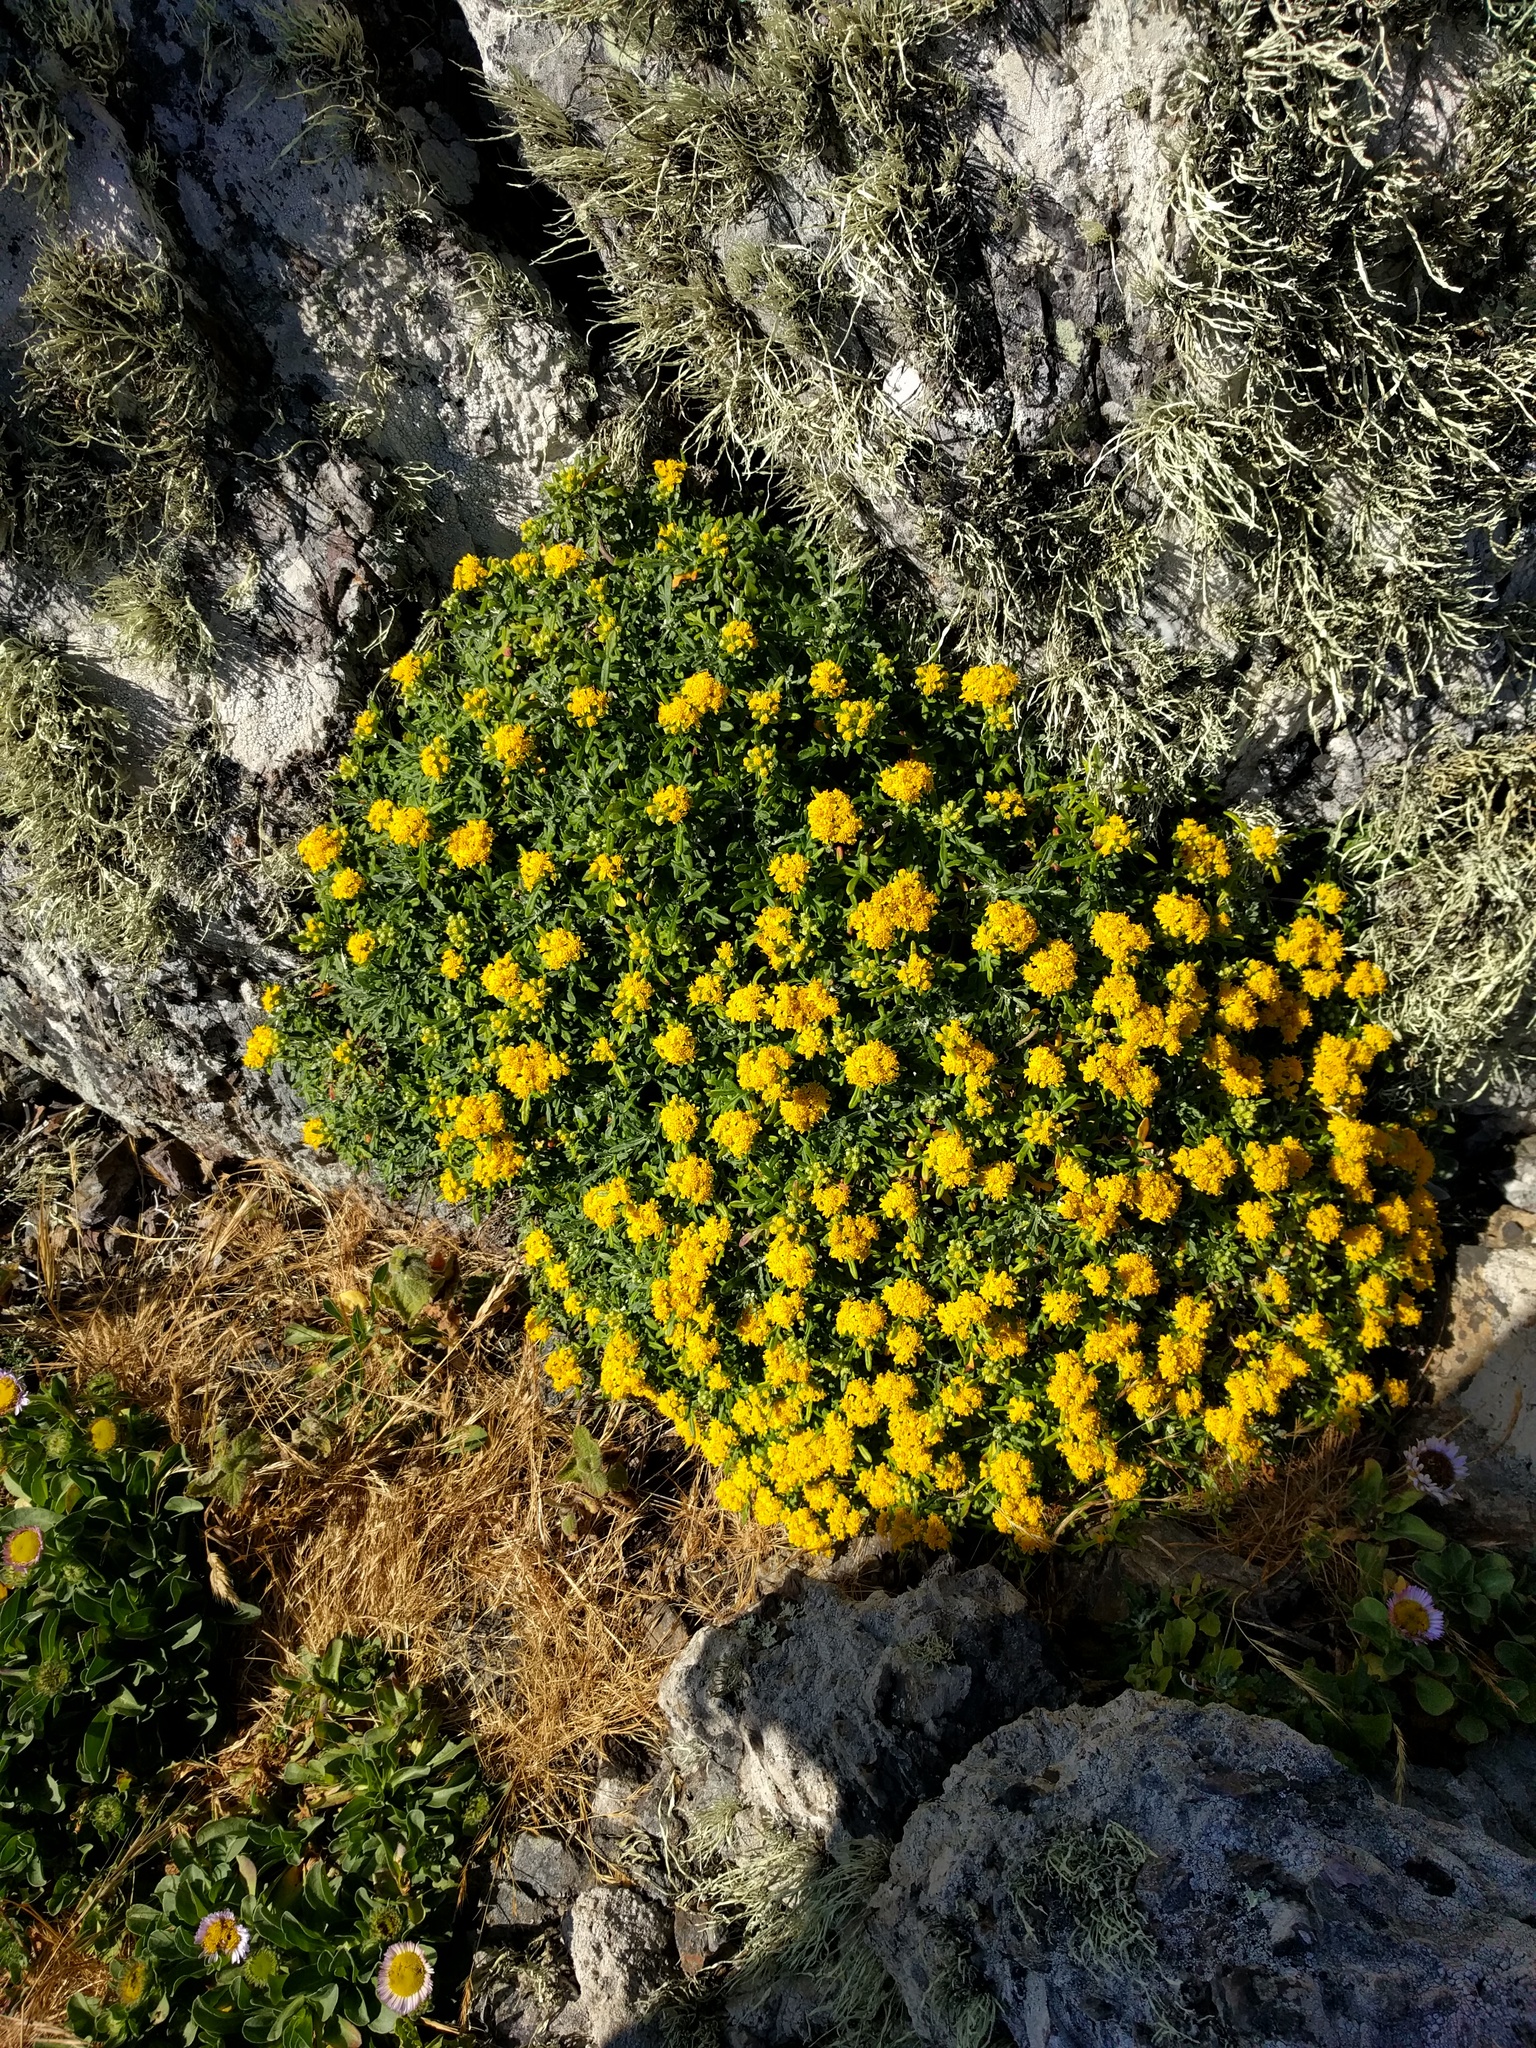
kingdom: Plantae
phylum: Tracheophyta
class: Magnoliopsida
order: Asterales
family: Asteraceae
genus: Eriophyllum
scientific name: Eriophyllum staechadifolium
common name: Lizardtail
